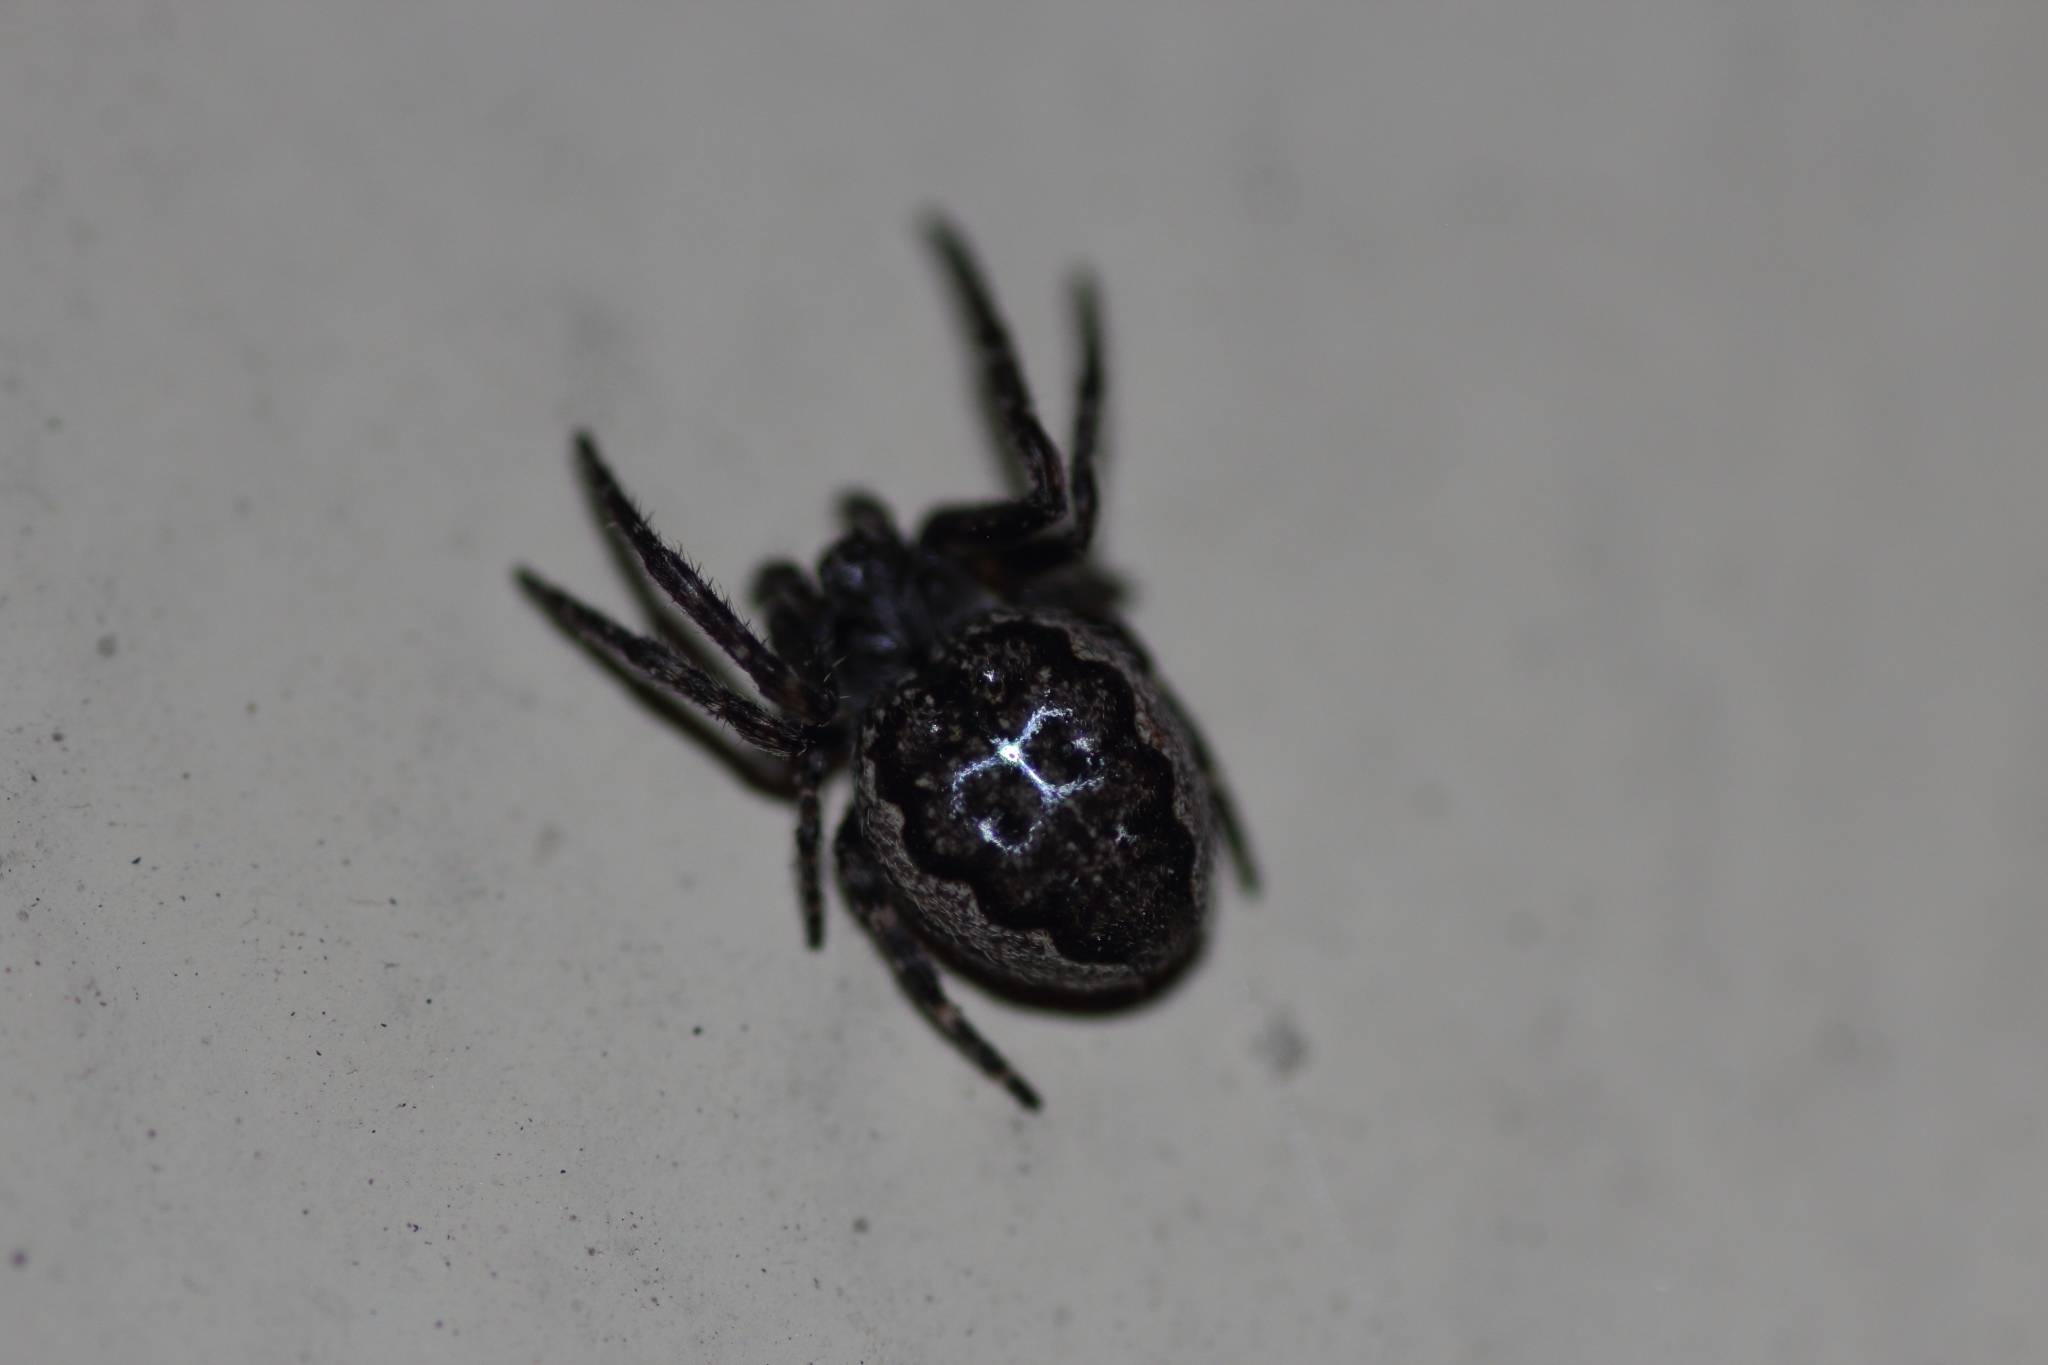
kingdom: Animalia
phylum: Arthropoda
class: Arachnida
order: Araneae
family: Araneidae
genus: Nuctenea
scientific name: Nuctenea umbratica
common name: Toad spider
